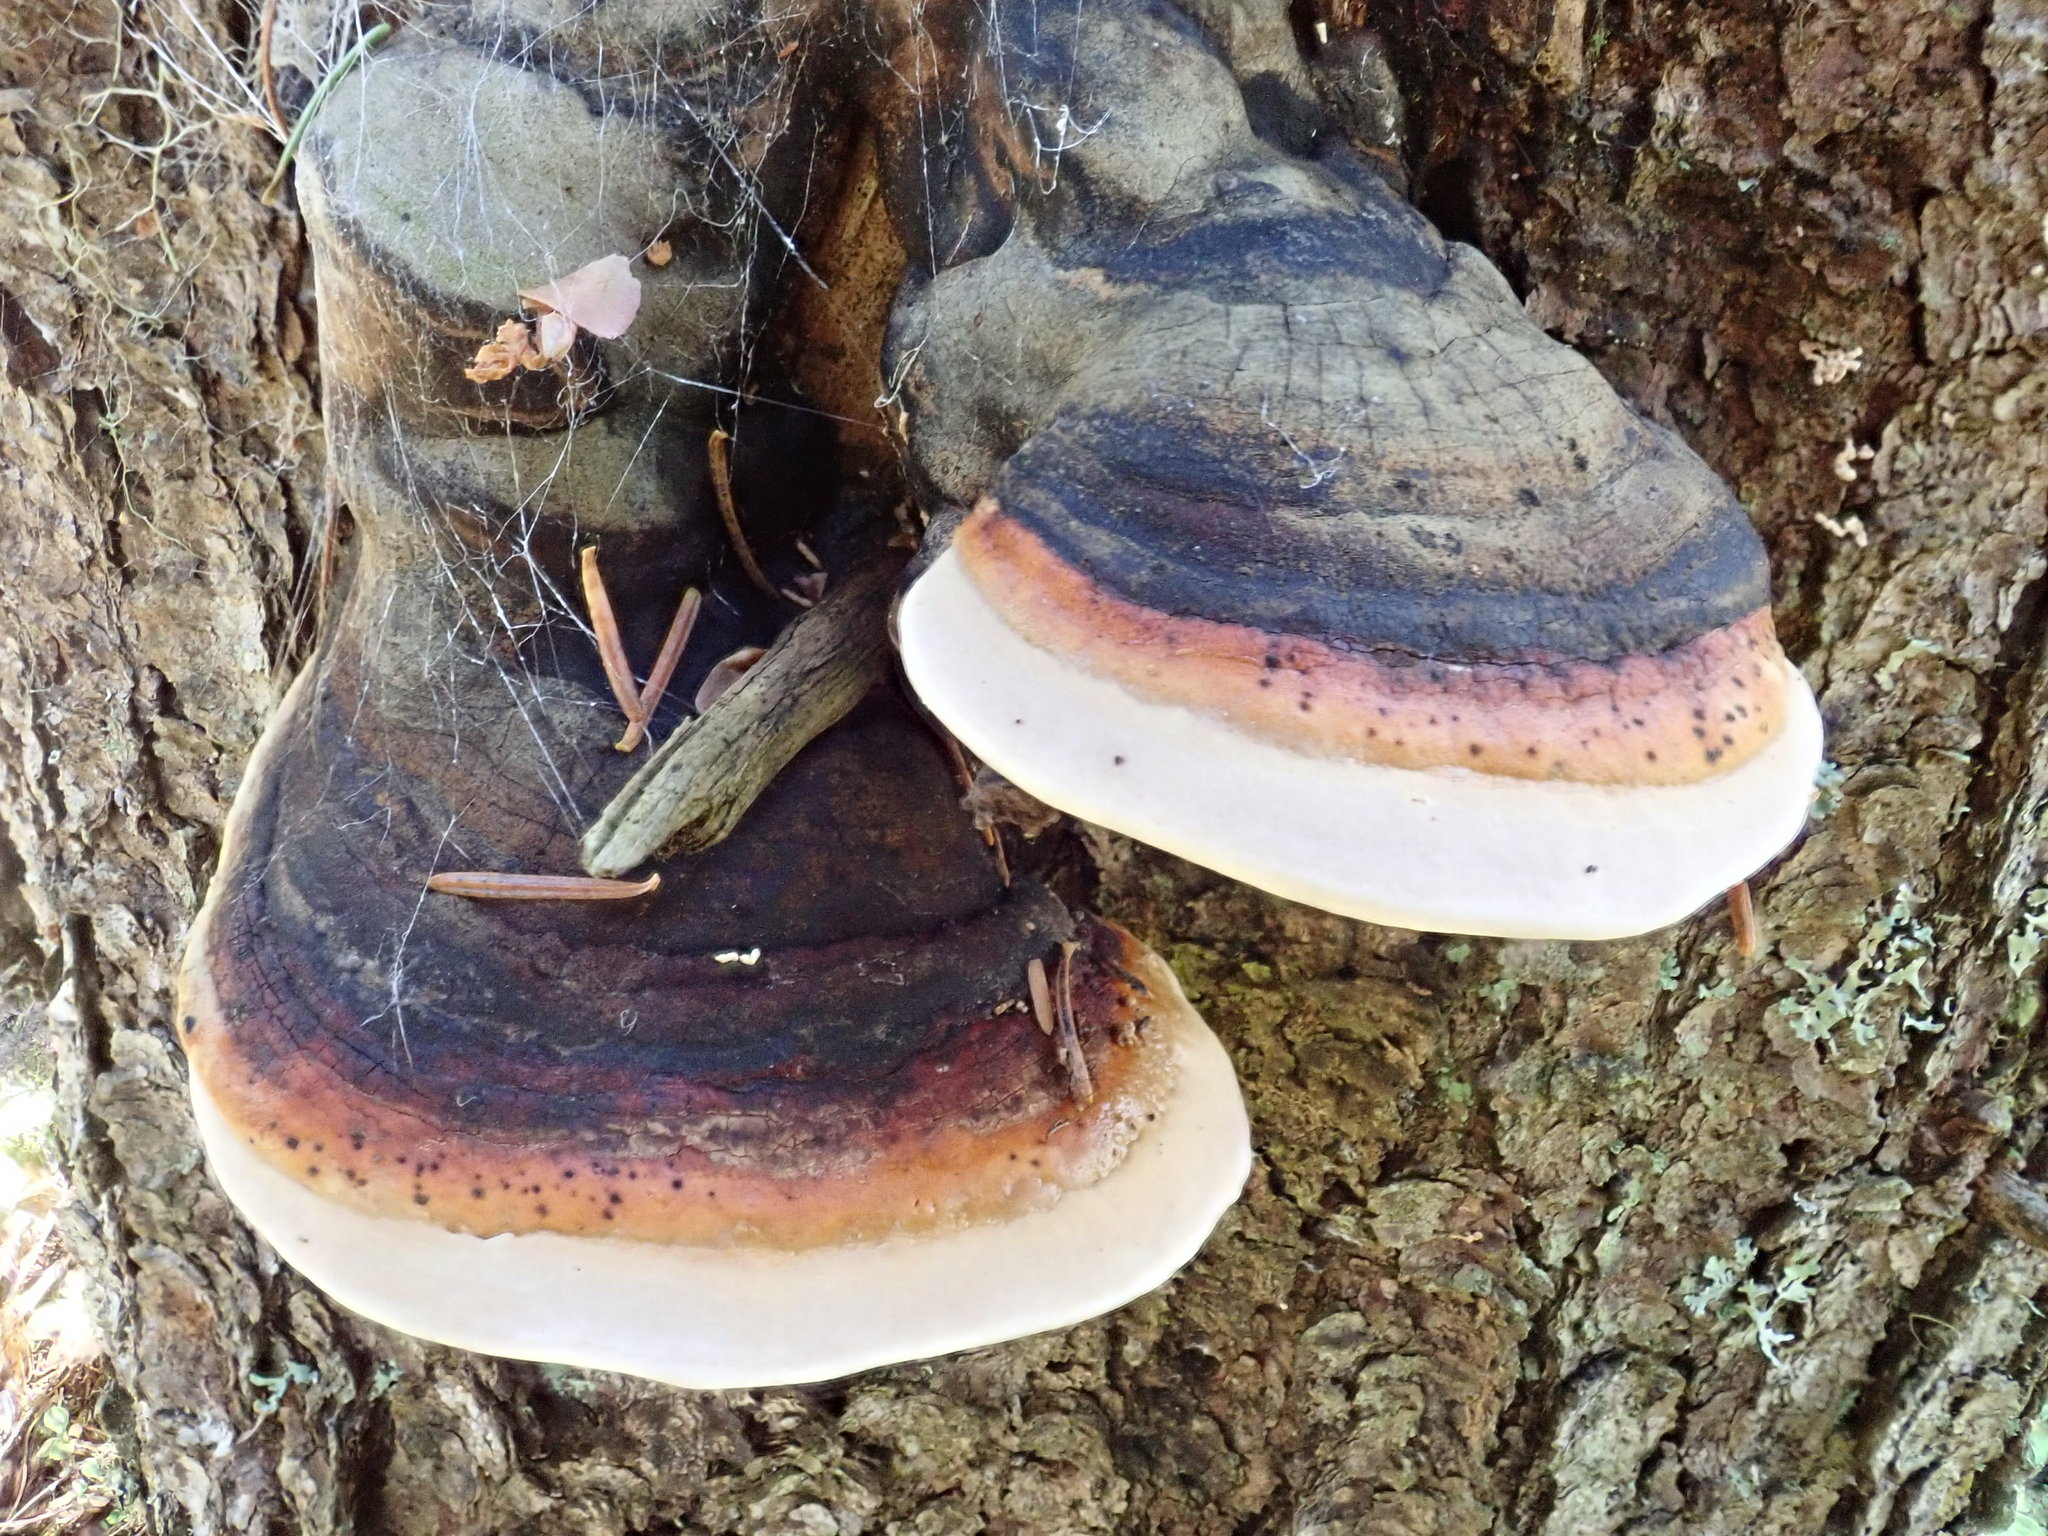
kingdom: Fungi
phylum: Basidiomycota
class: Agaricomycetes
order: Polyporales
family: Fomitopsidaceae
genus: Fomitopsis
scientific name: Fomitopsis mounceae
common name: Northern red belt
